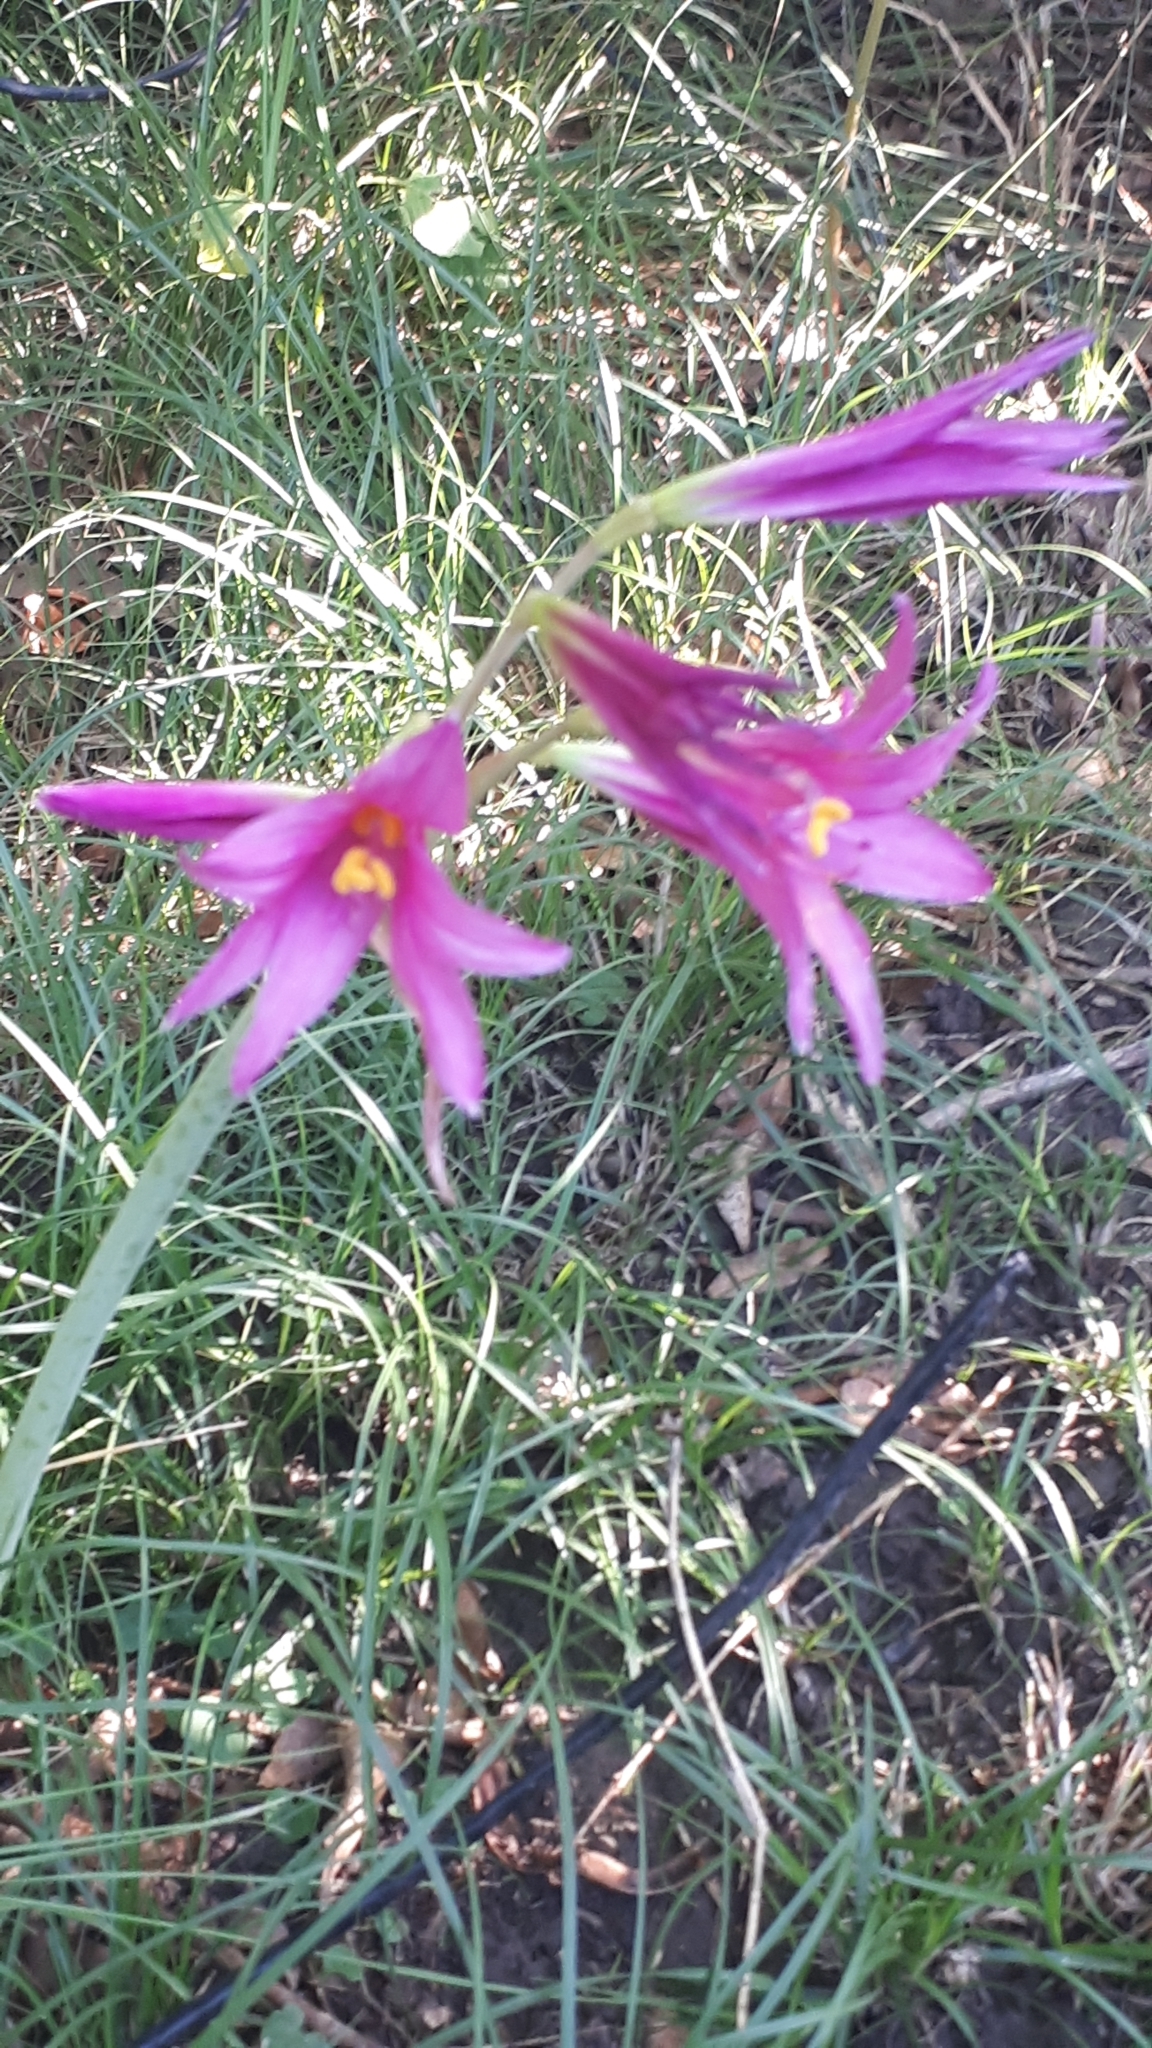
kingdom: Plantae
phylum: Tracheophyta
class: Liliopsida
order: Asparagales
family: Amaryllidaceae
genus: Zephyranthes
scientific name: Zephyranthes bifida
